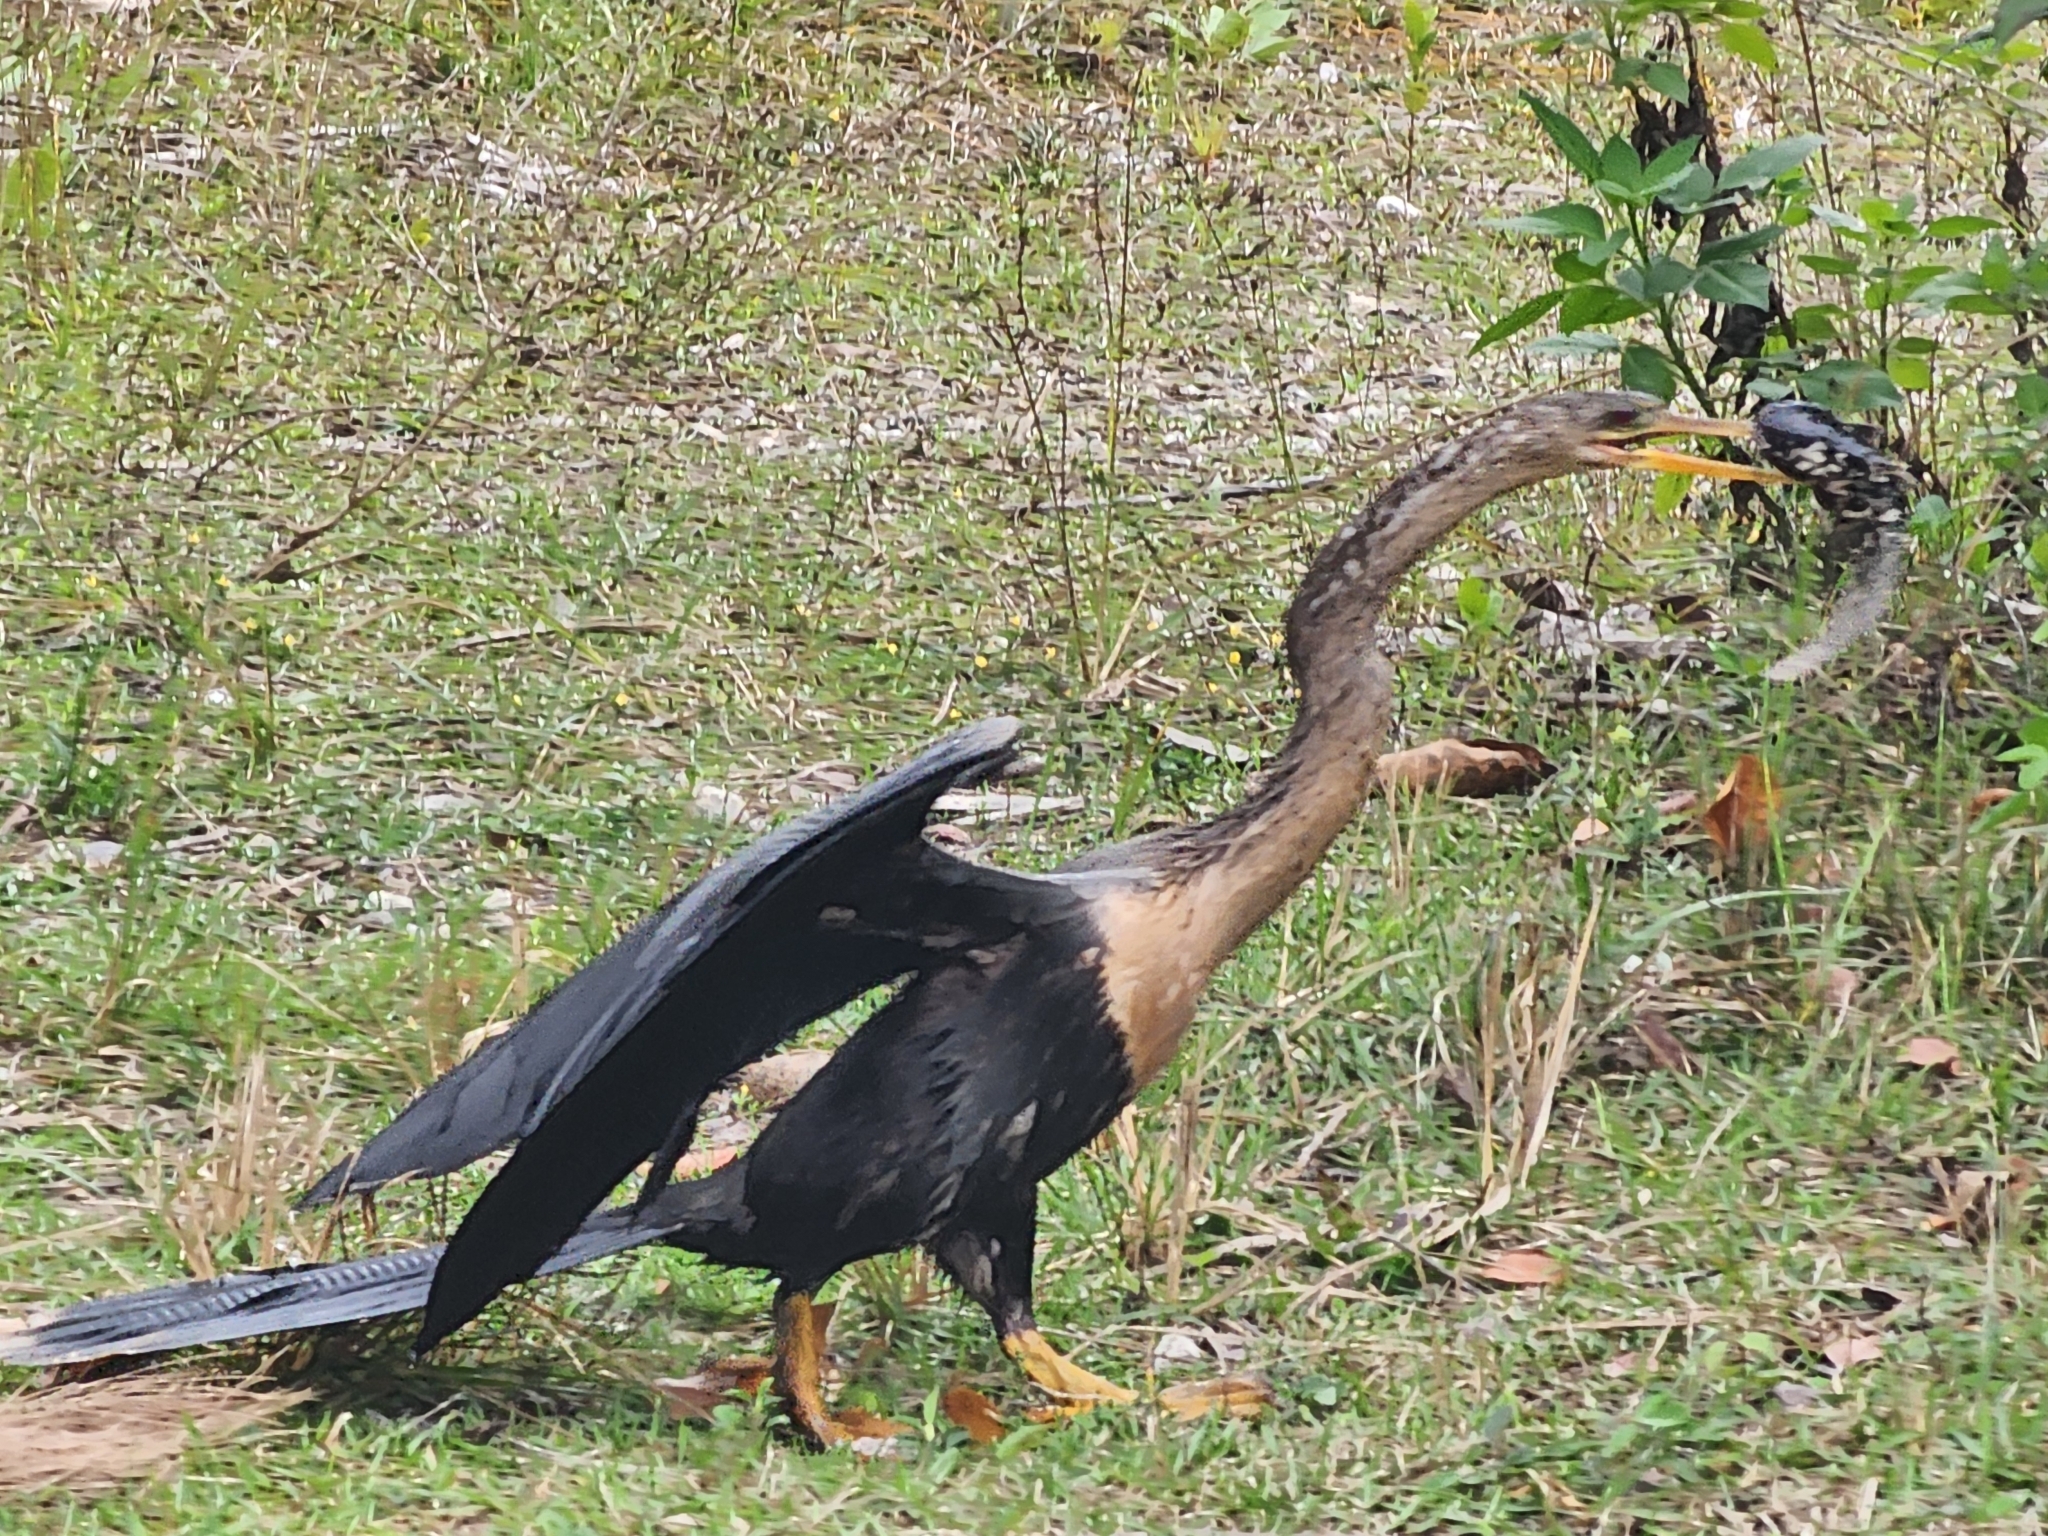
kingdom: Animalia
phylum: Chordata
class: Aves
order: Suliformes
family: Anhingidae
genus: Anhinga
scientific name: Anhinga anhinga
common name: Anhinga
